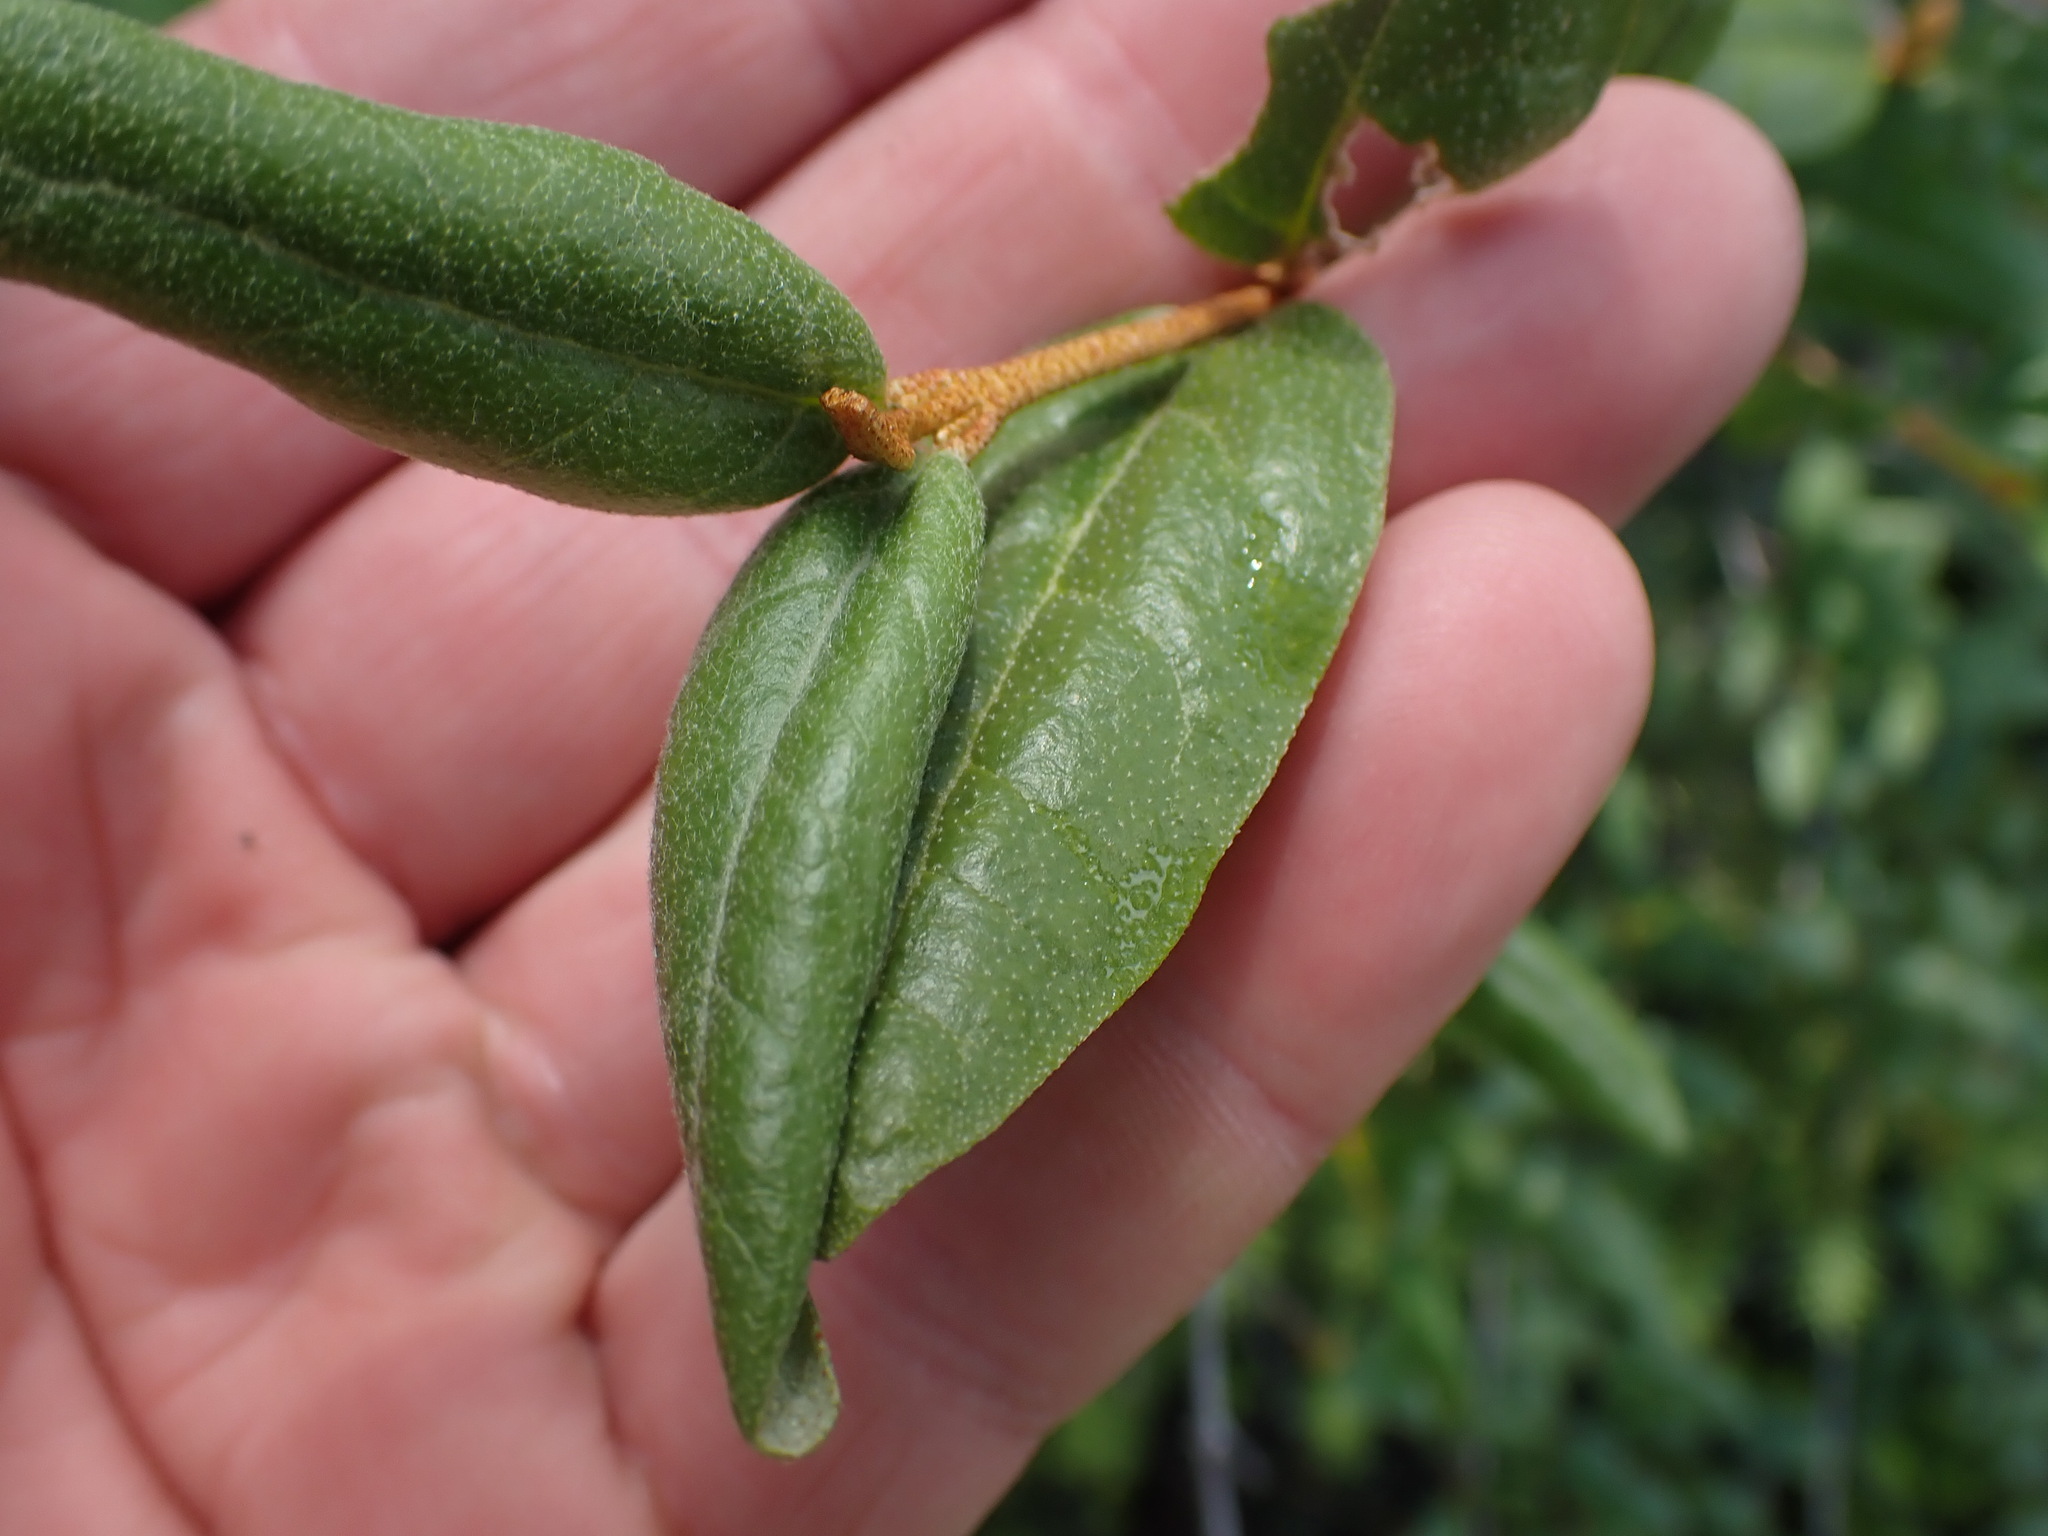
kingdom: Plantae
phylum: Tracheophyta
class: Magnoliopsida
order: Rosales
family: Elaeagnaceae
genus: Shepherdia
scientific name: Shepherdia canadensis
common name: Soapberry
